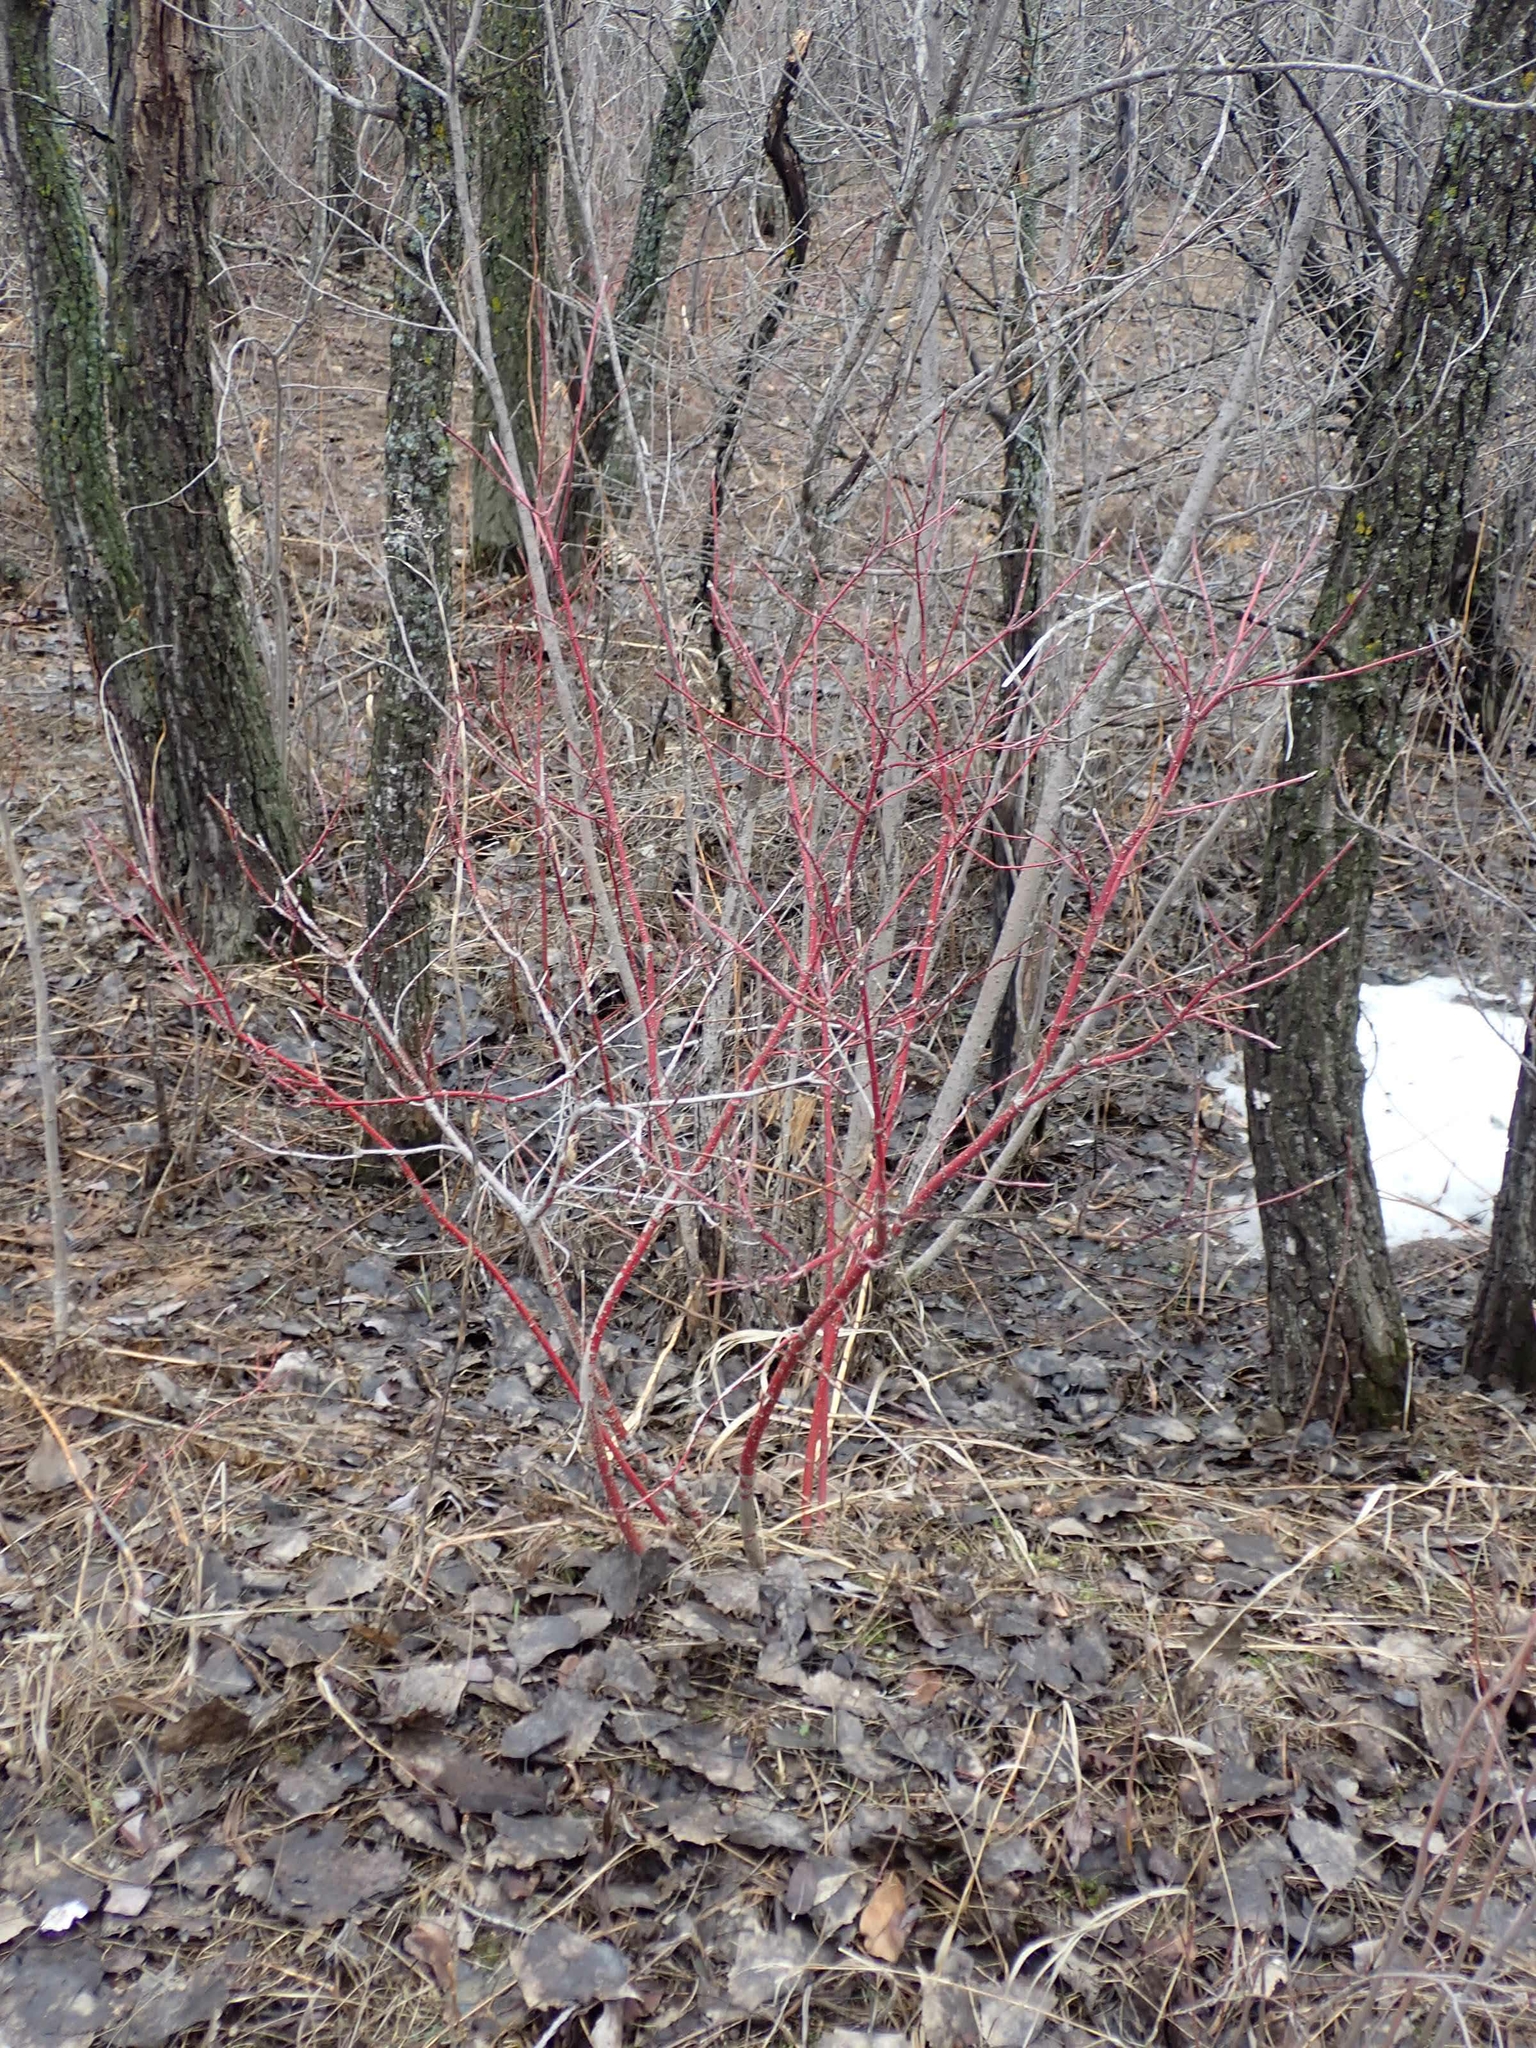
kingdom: Plantae
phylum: Tracheophyta
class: Magnoliopsida
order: Cornales
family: Cornaceae
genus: Cornus
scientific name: Cornus sericea
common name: Red-osier dogwood
